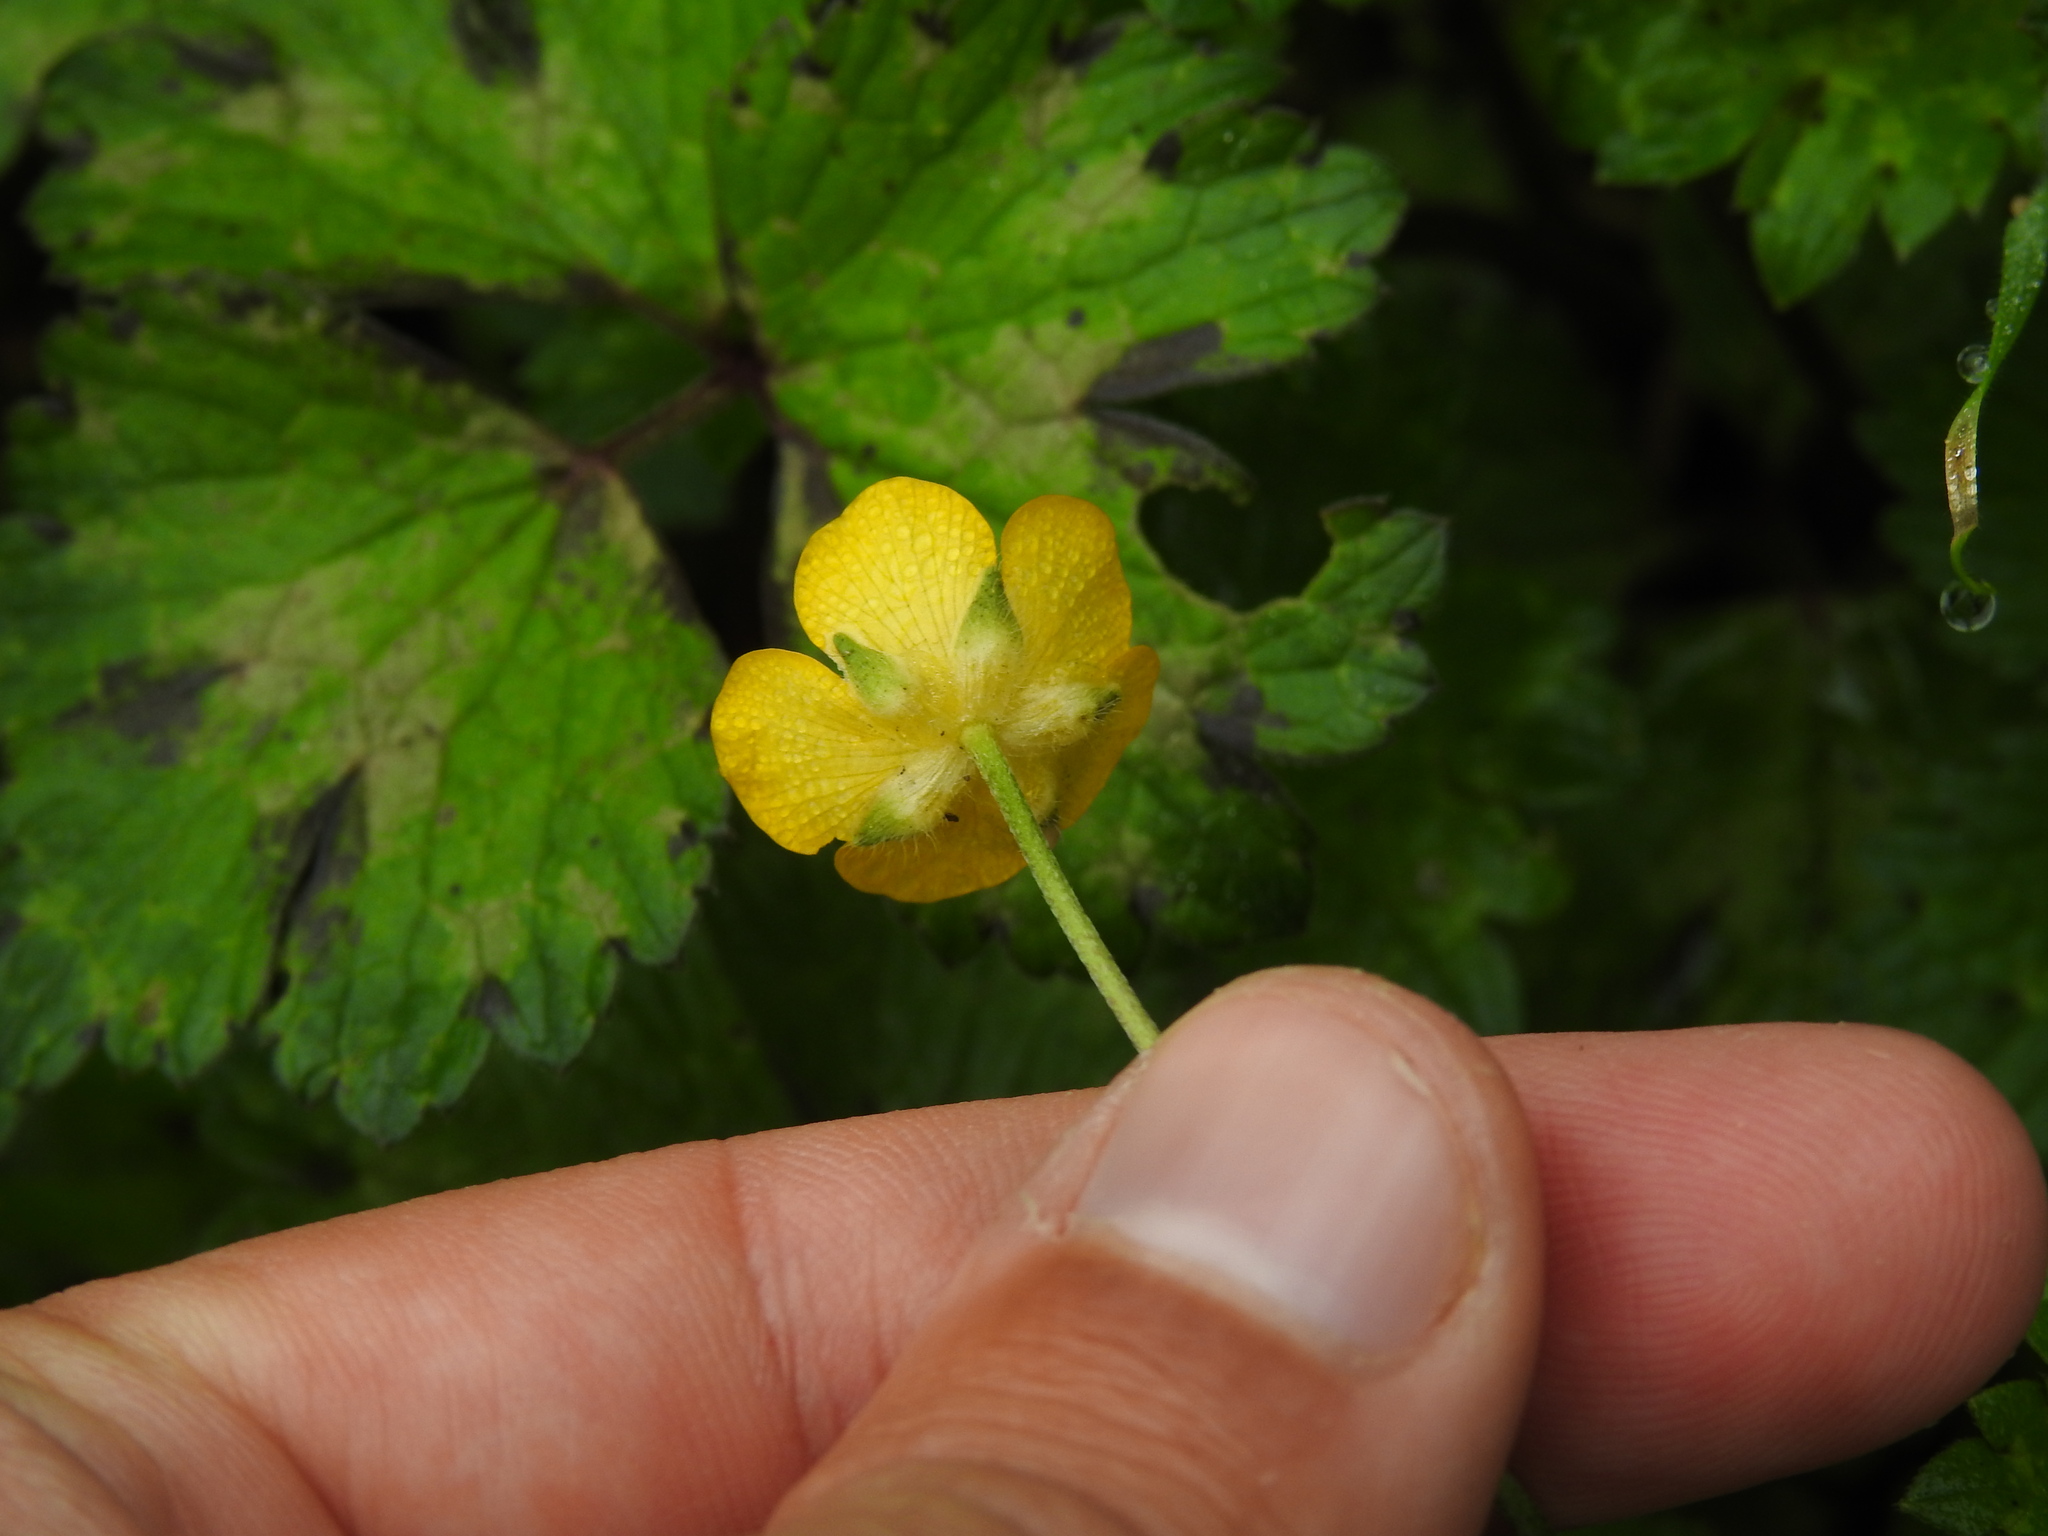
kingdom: Plantae
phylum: Tracheophyta
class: Magnoliopsida
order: Ranunculales
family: Ranunculaceae
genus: Ranunculus
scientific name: Ranunculus repens
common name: Creeping buttercup
